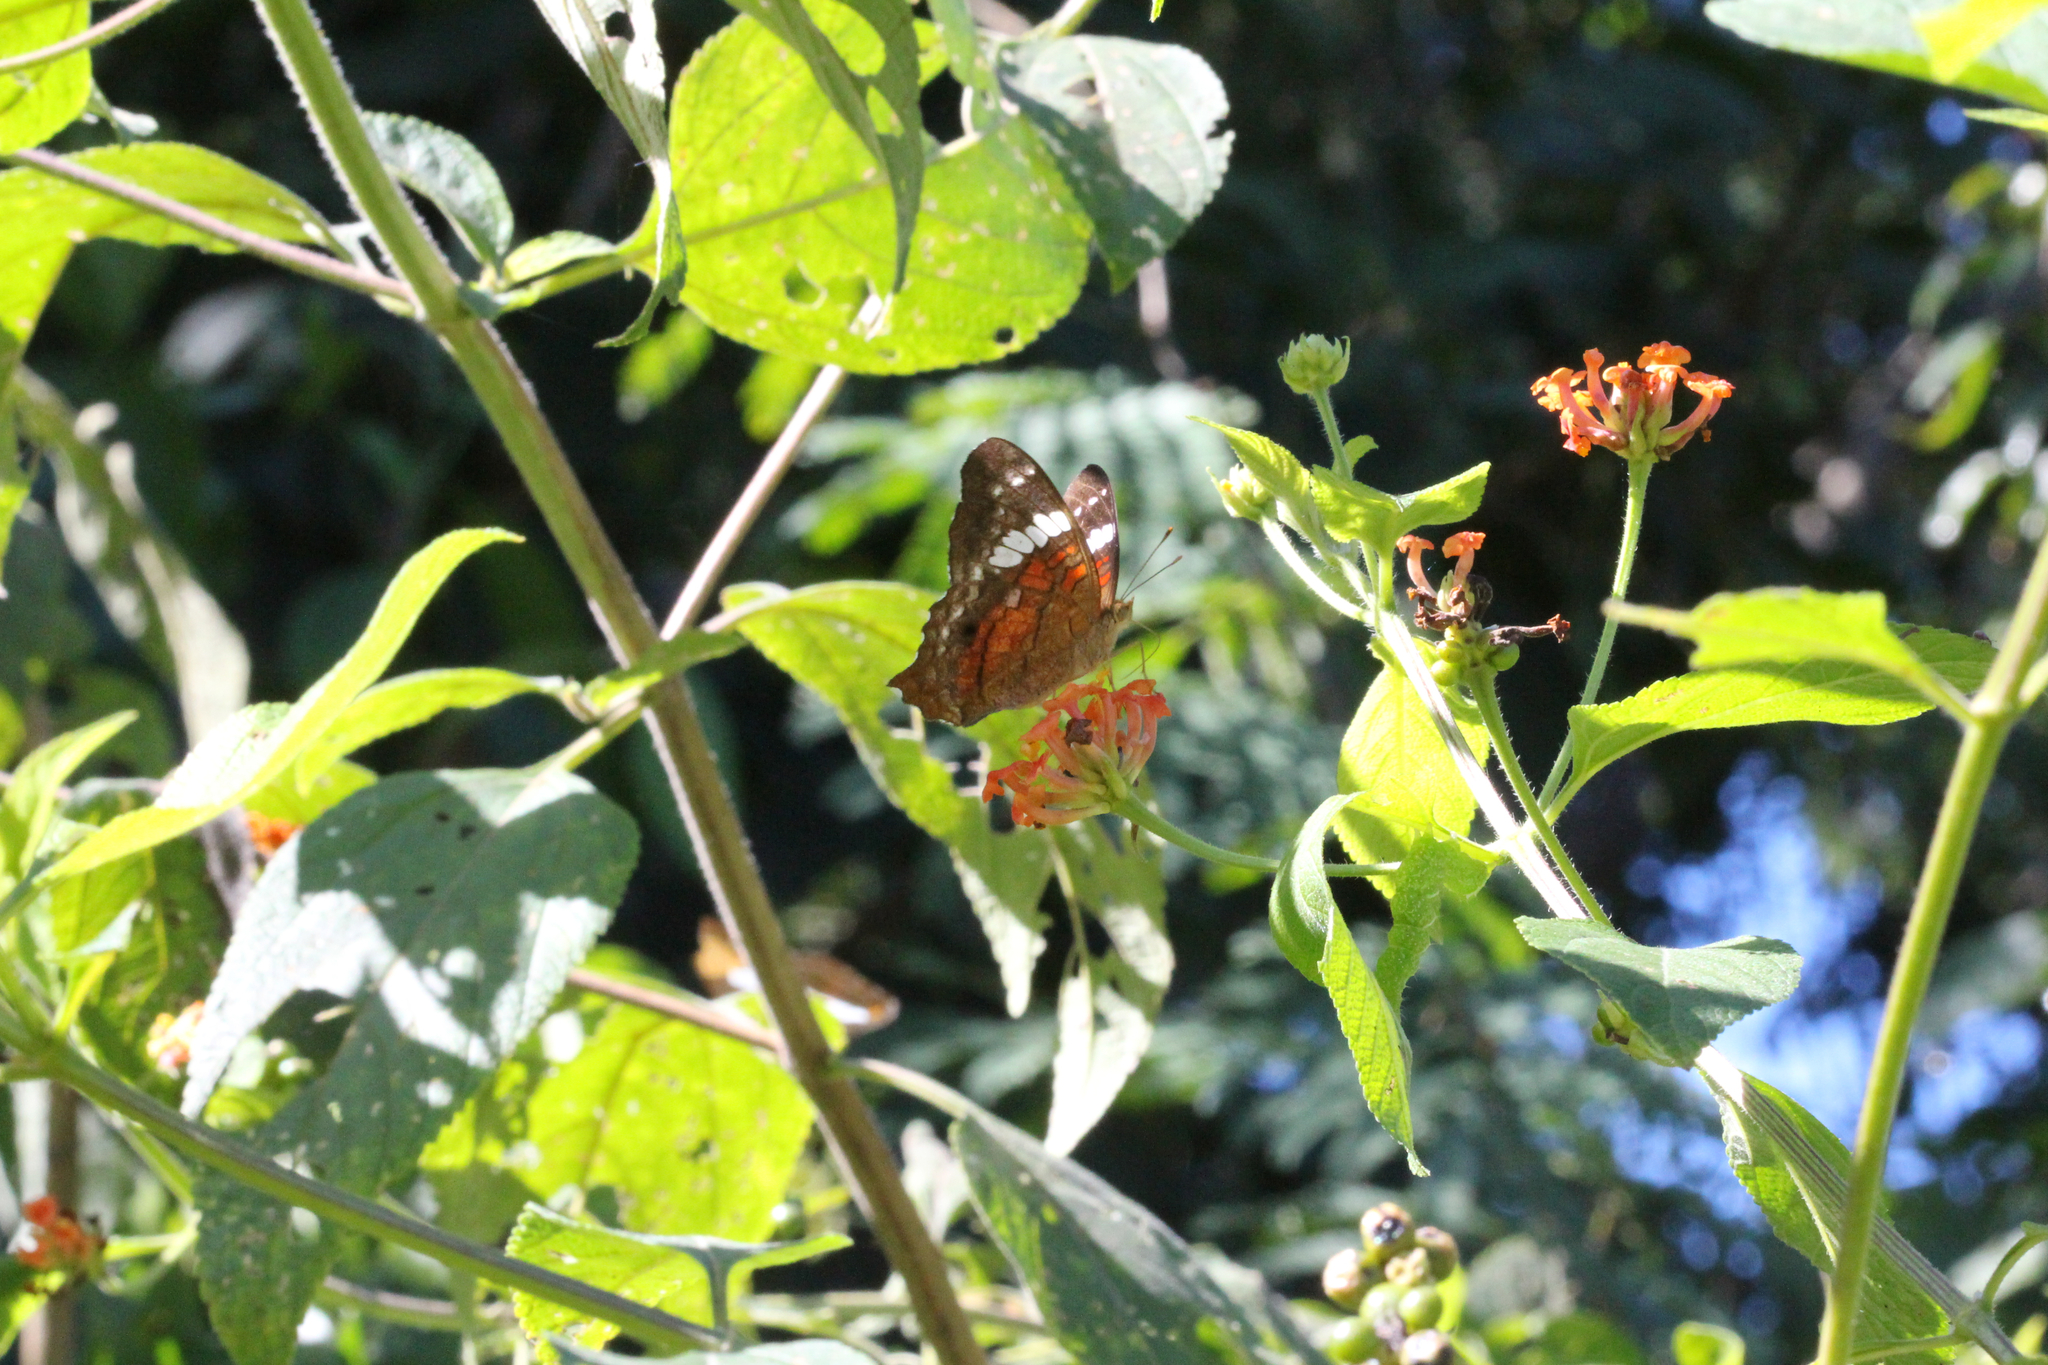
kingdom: Animalia
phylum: Arthropoda
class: Insecta
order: Lepidoptera
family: Nymphalidae
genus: Anartia
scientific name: Anartia amathea
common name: Red peacock
